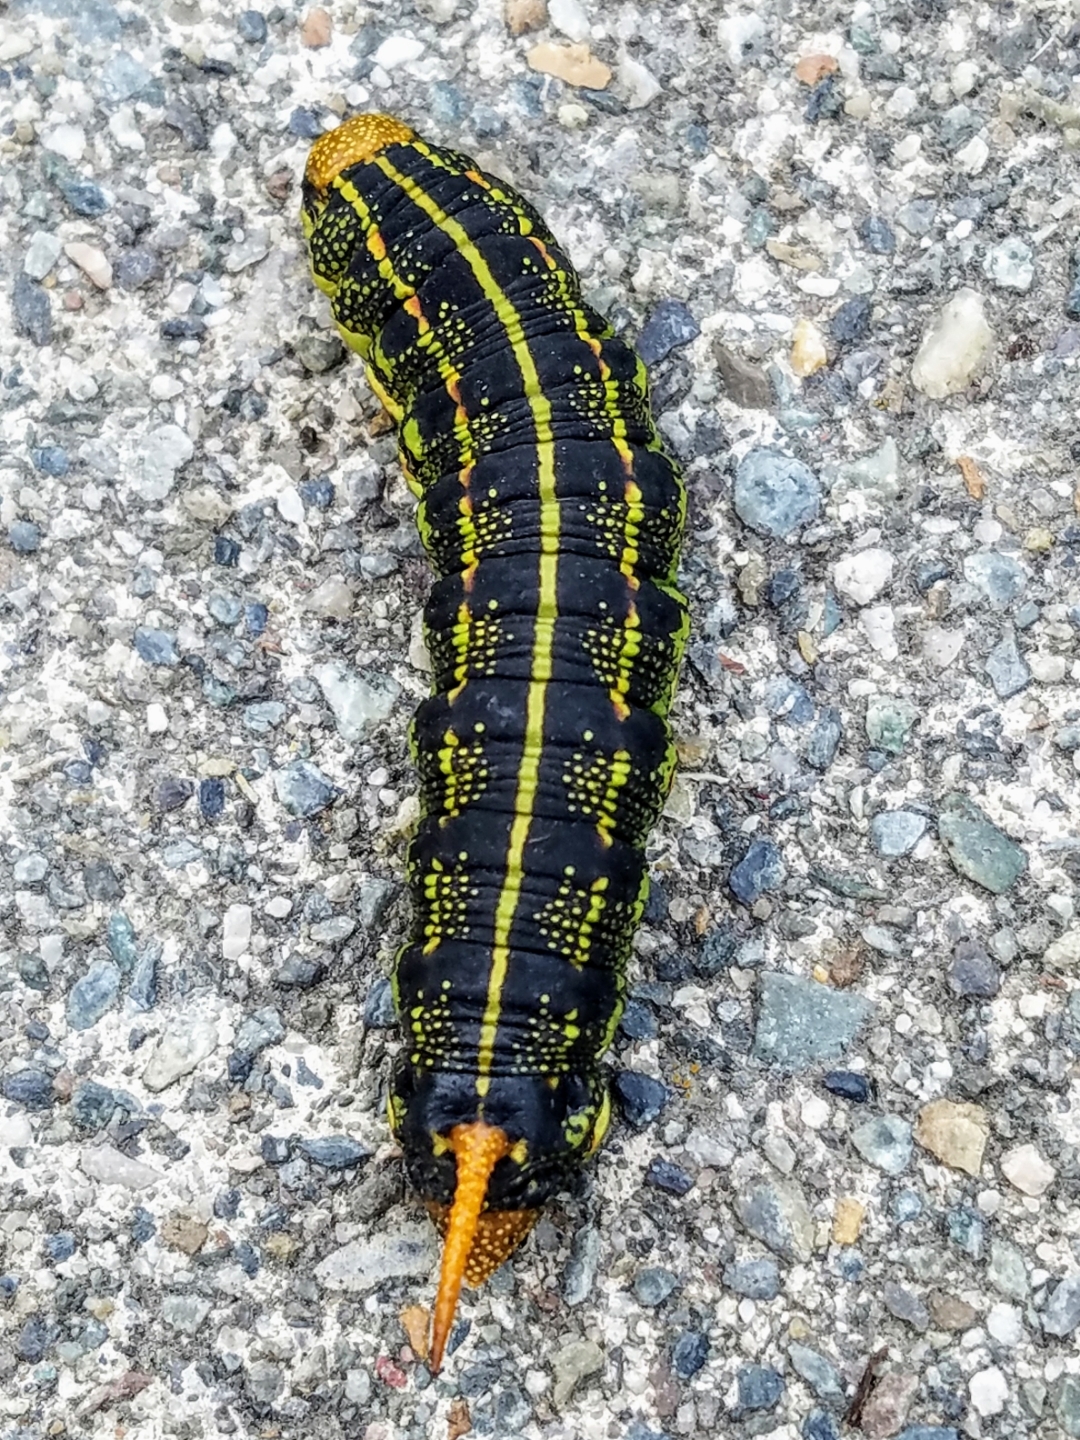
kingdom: Animalia
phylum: Arthropoda
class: Insecta
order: Lepidoptera
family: Sphingidae
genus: Hyles
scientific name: Hyles lineata
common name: White-lined sphinx
